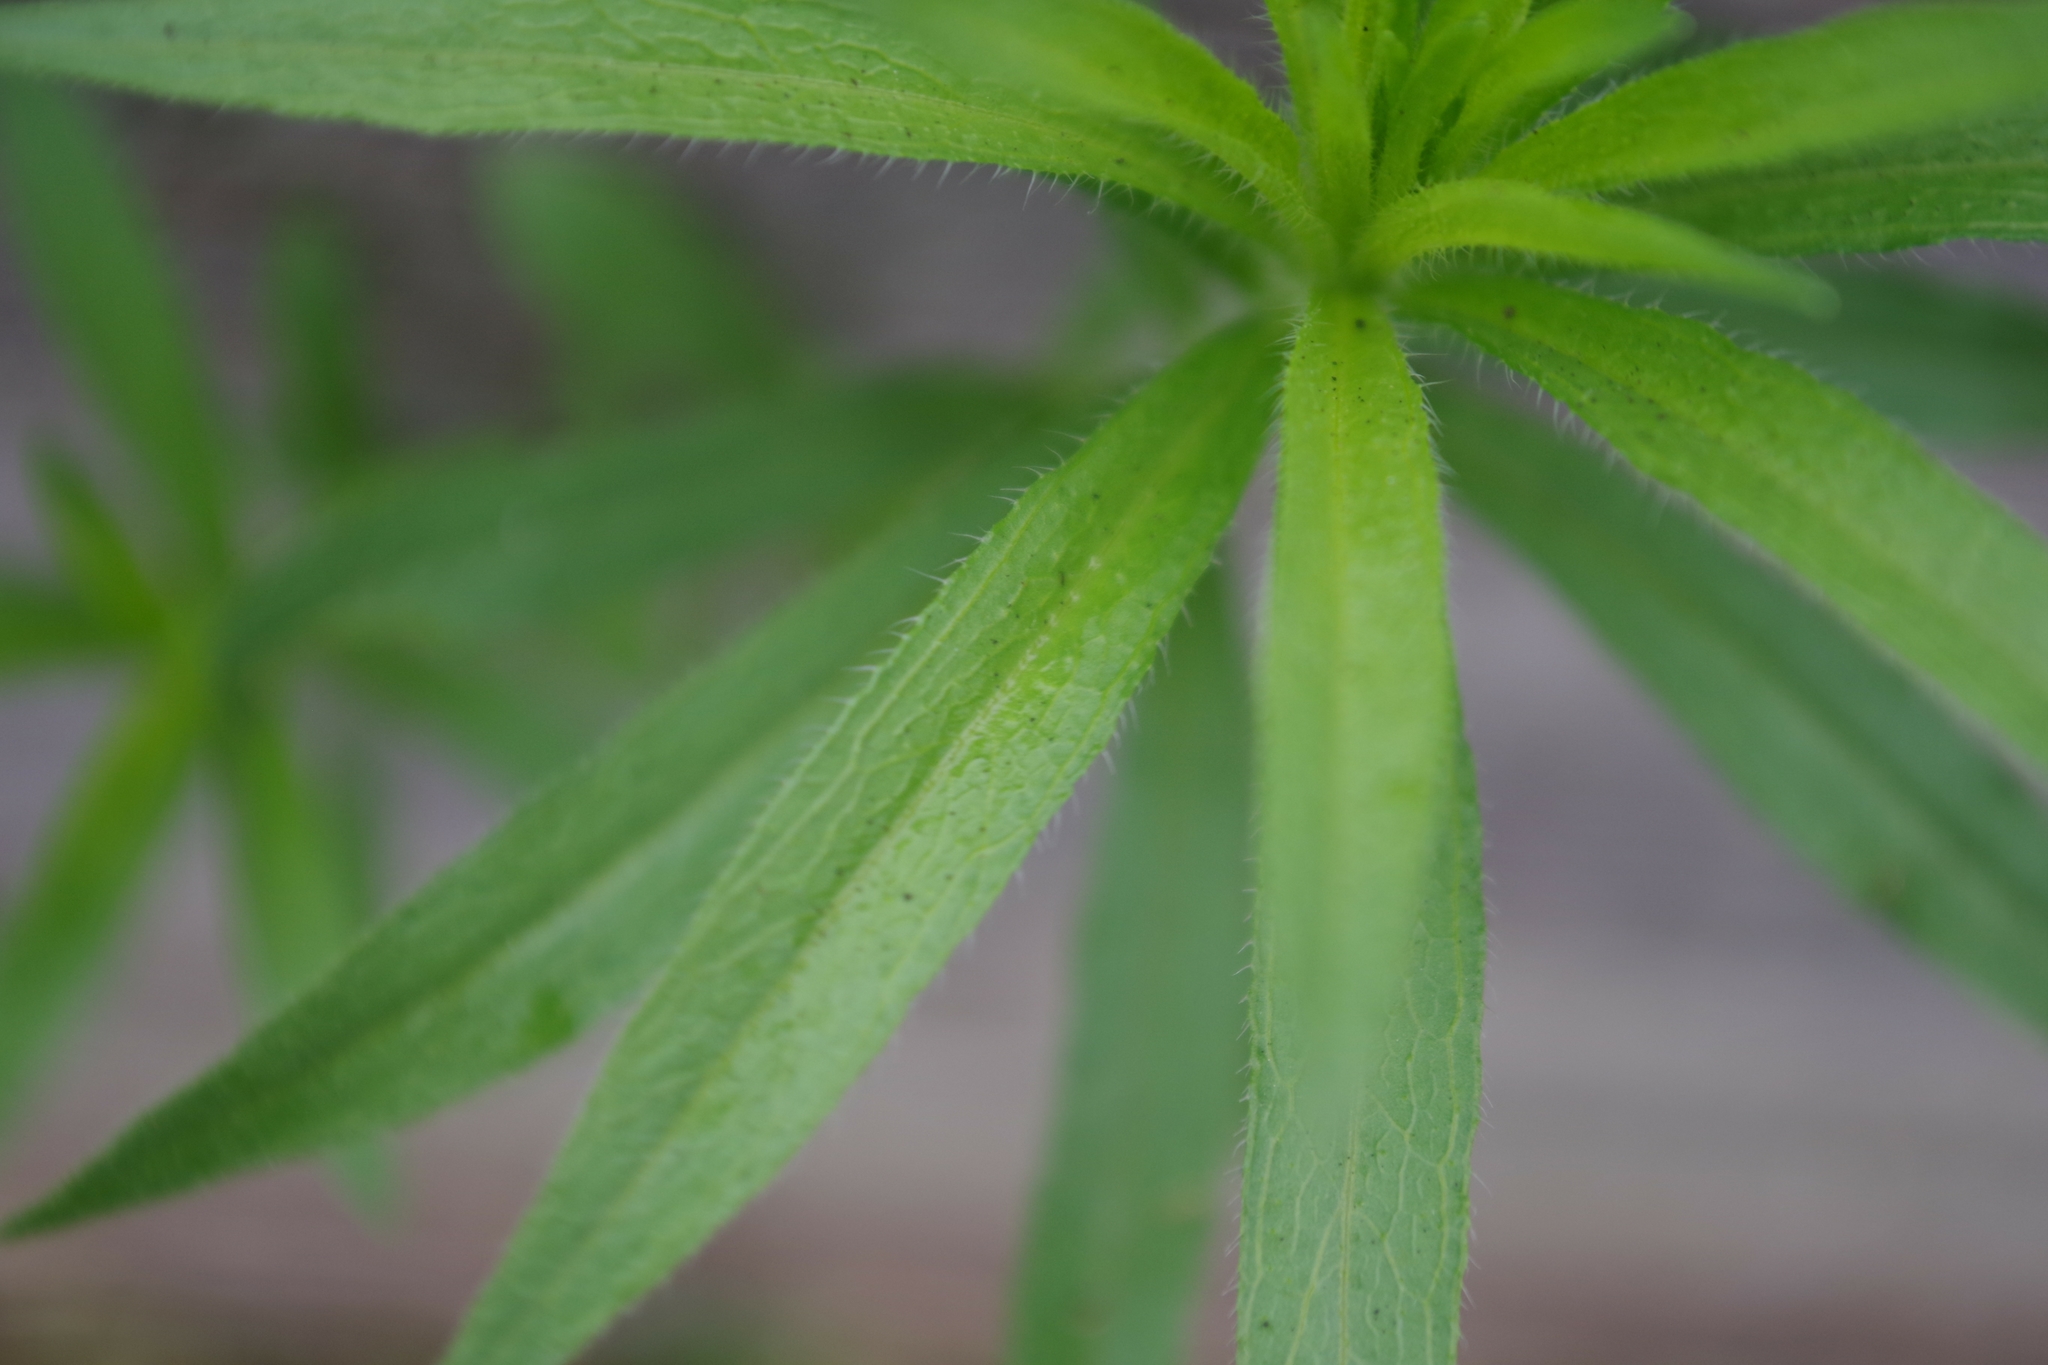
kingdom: Plantae
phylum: Tracheophyta
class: Magnoliopsida
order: Asterales
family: Asteraceae
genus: Erigeron
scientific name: Erigeron canadensis
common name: Canadian fleabane
